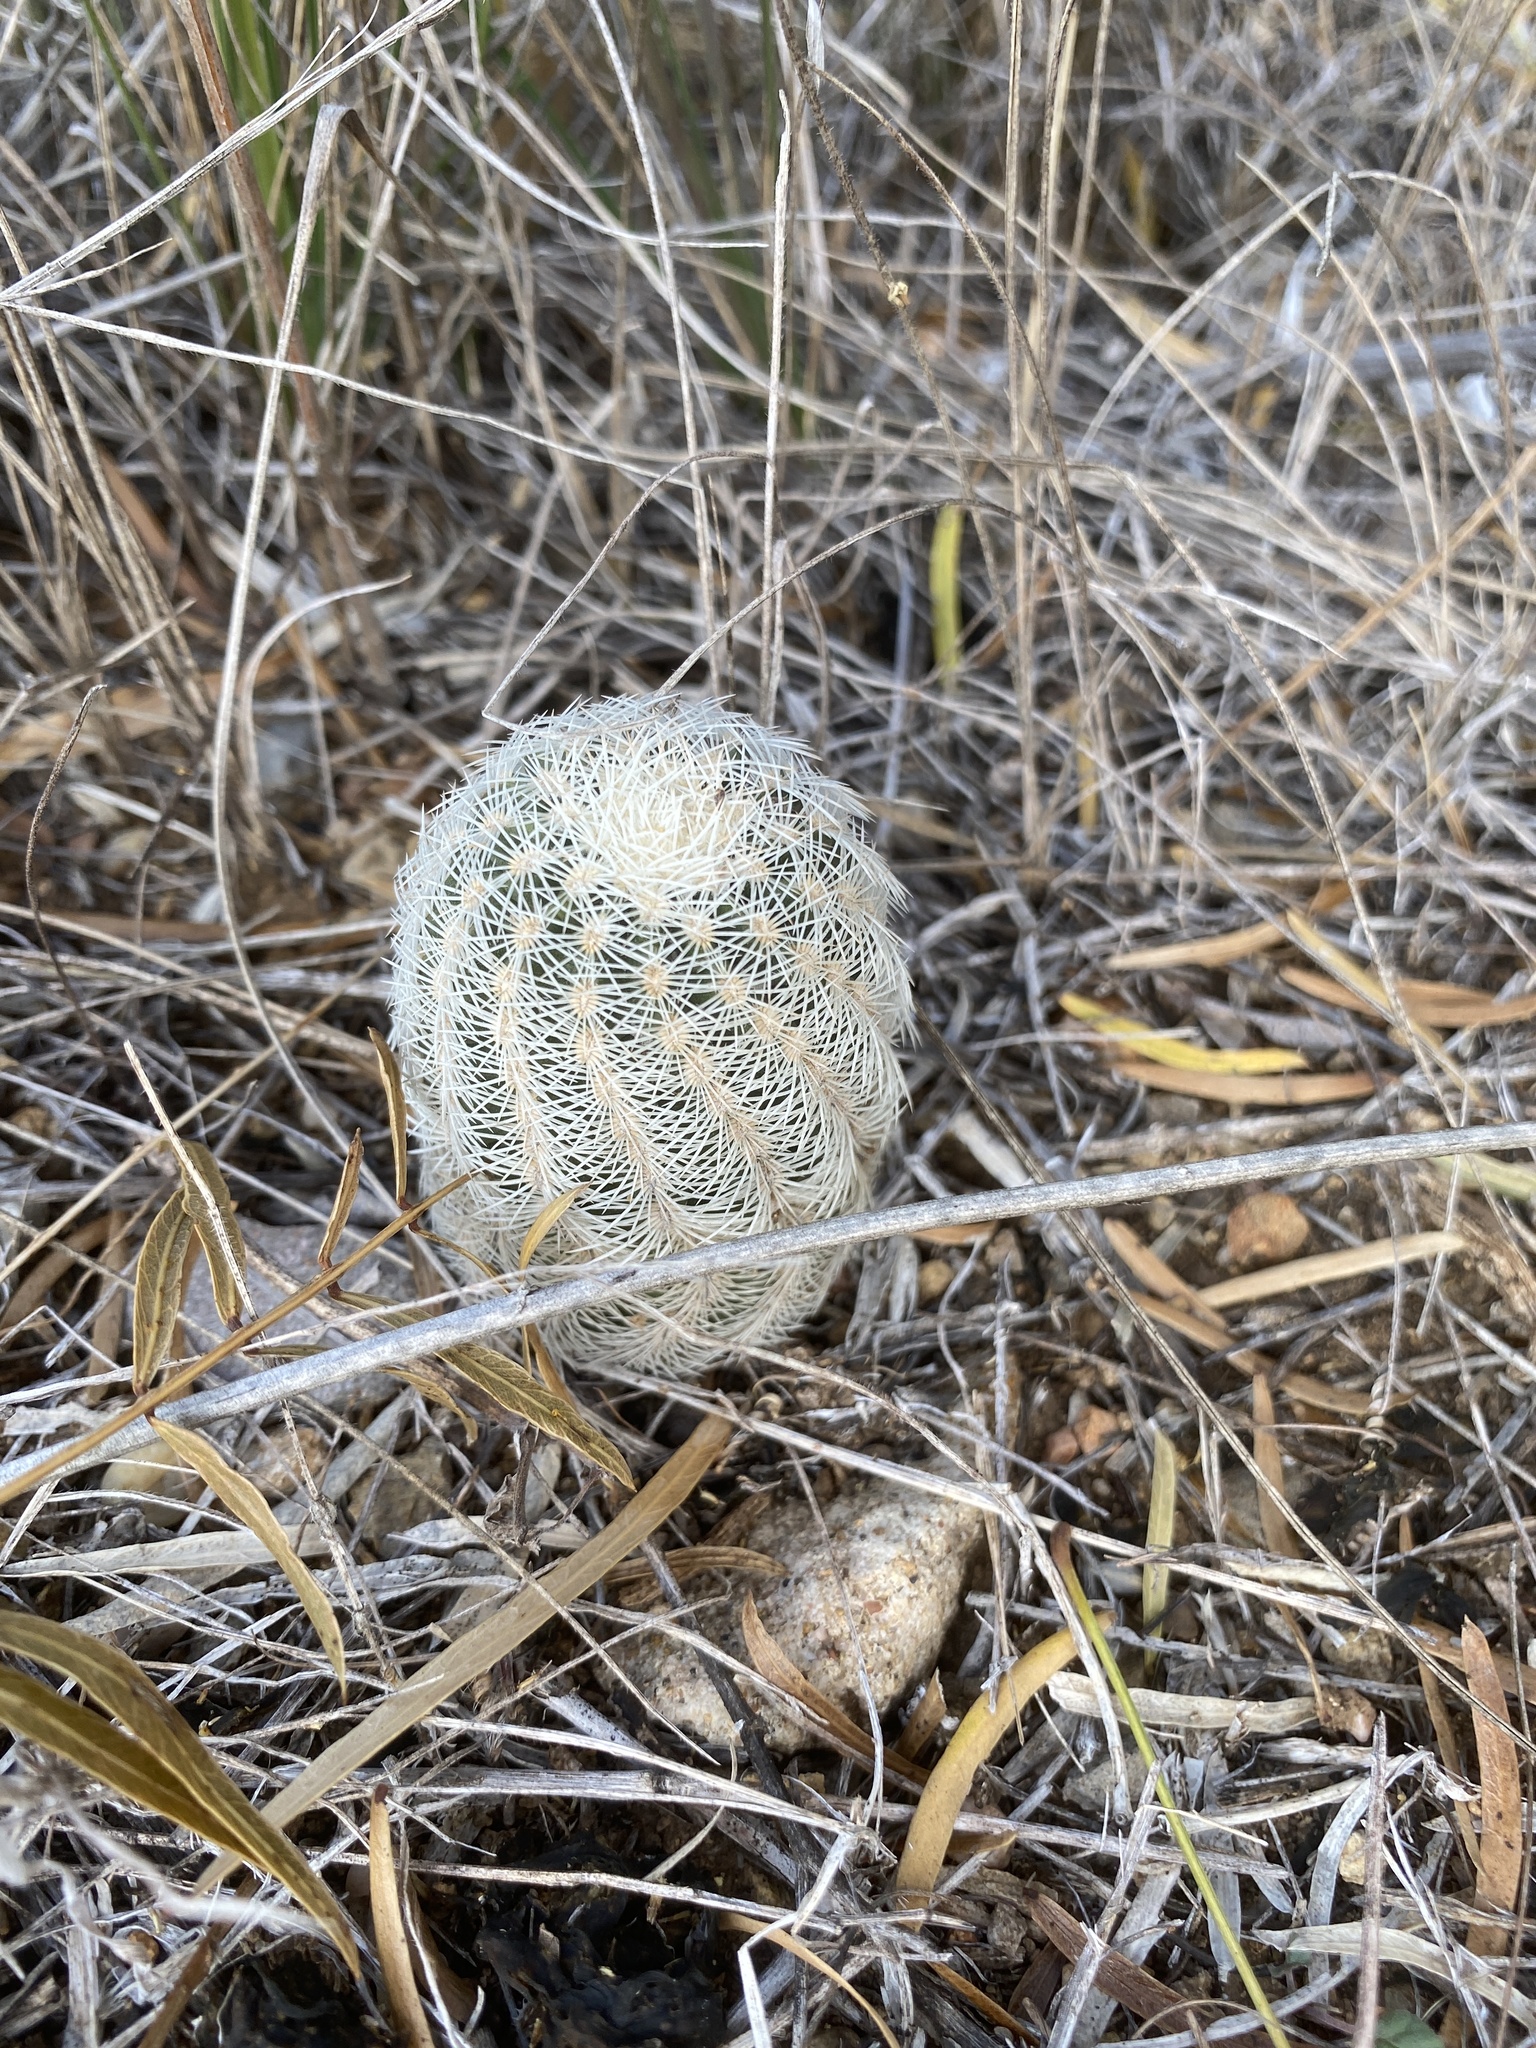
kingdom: Plantae
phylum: Tracheophyta
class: Magnoliopsida
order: Caryophyllales
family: Cactaceae
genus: Echinocereus
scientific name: Echinocereus reichenbachii
